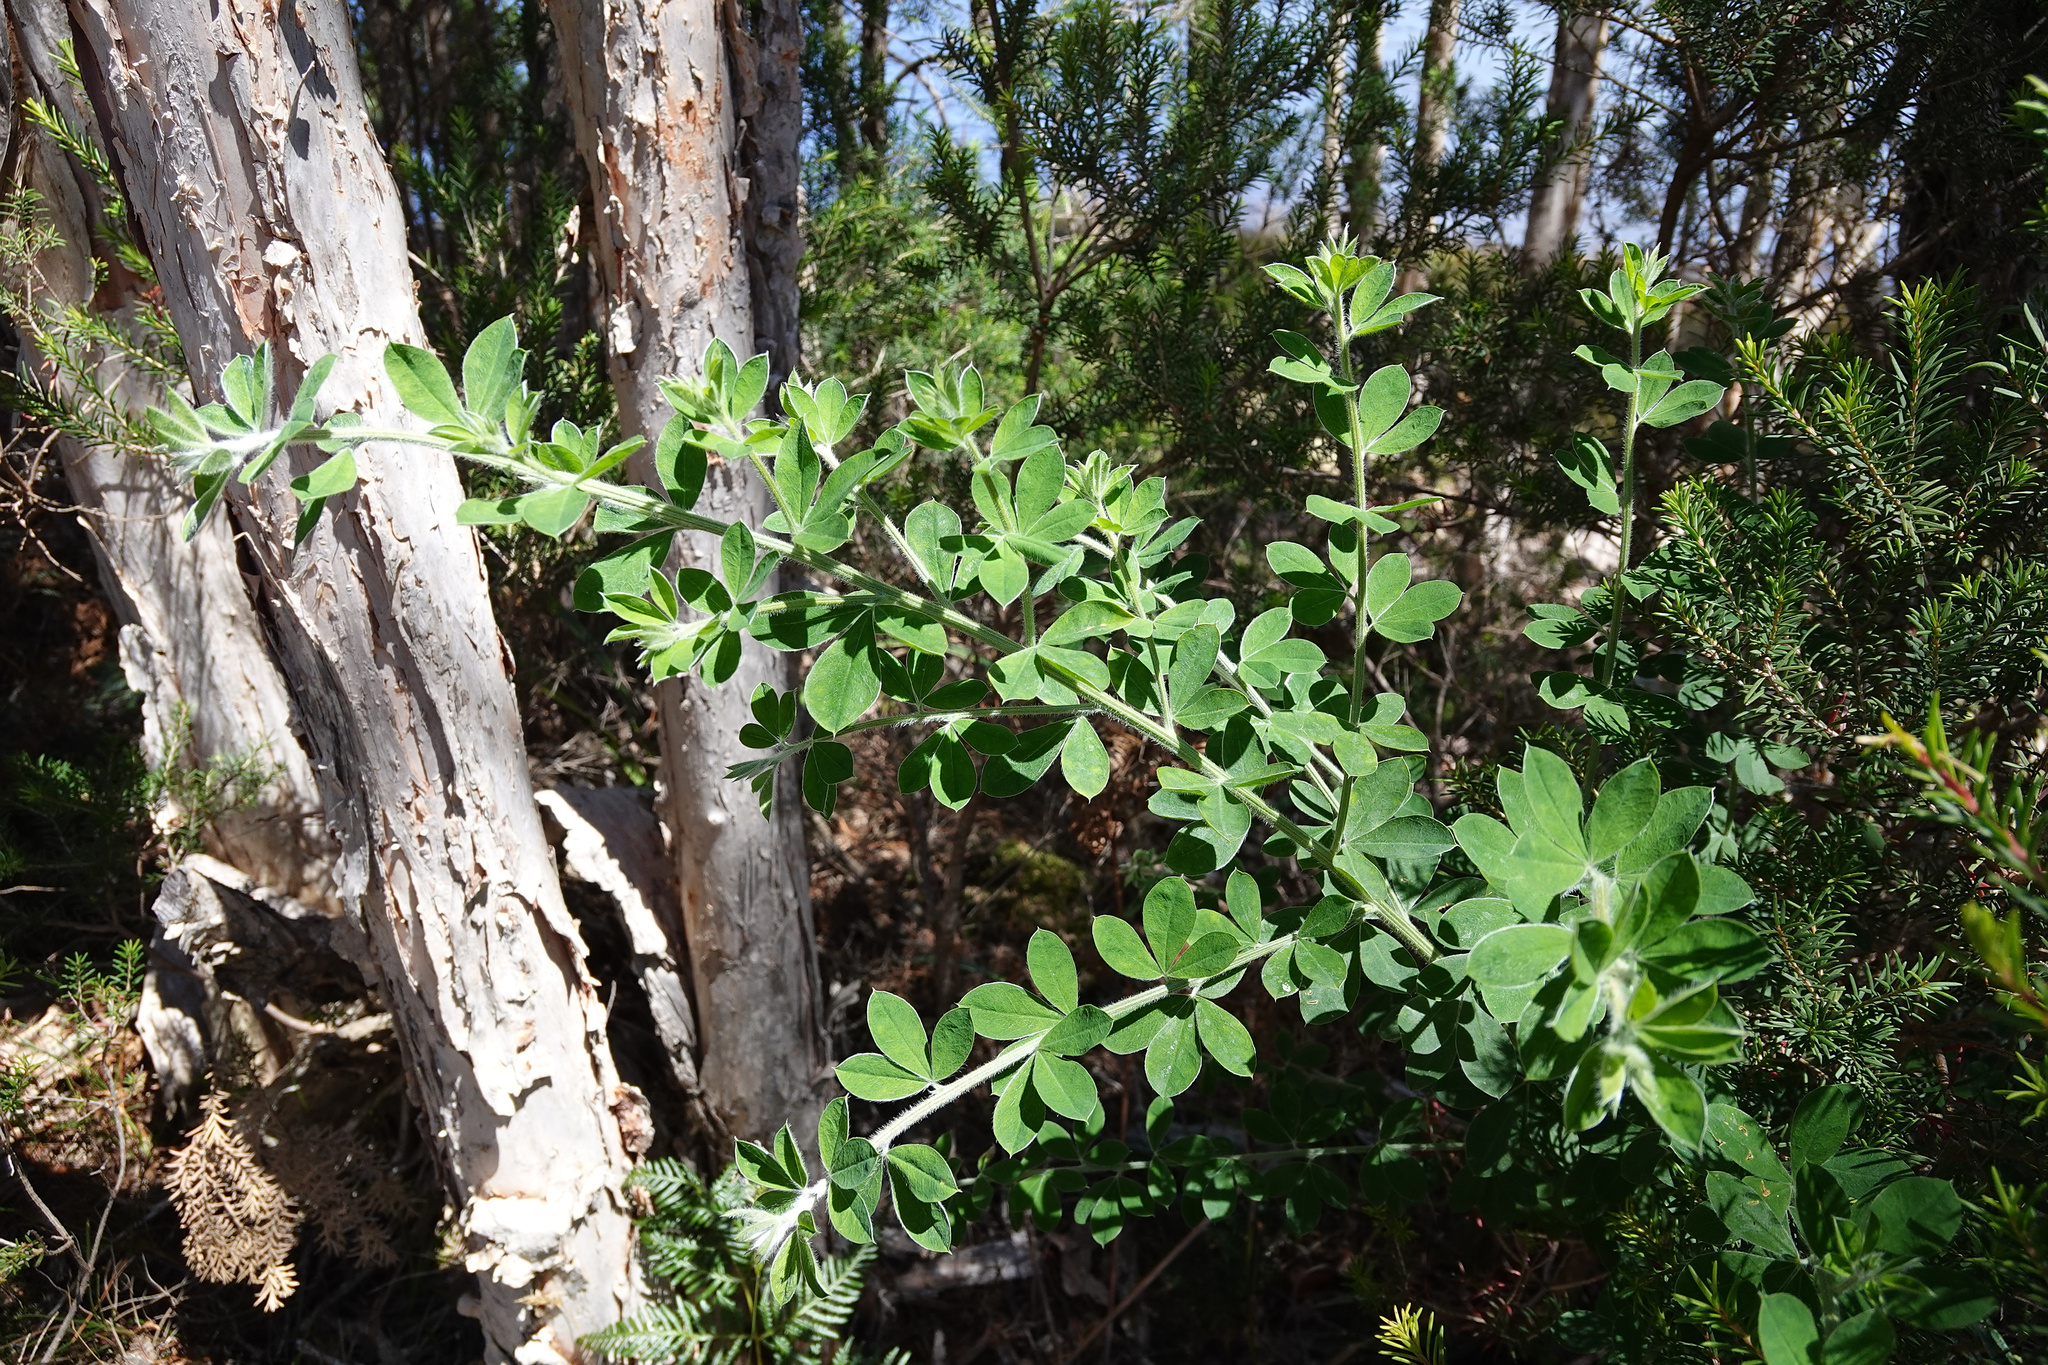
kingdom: Plantae
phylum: Tracheophyta
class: Magnoliopsida
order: Fabales
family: Fabaceae
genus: Genista
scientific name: Genista monspessulana
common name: Montpellier broom
